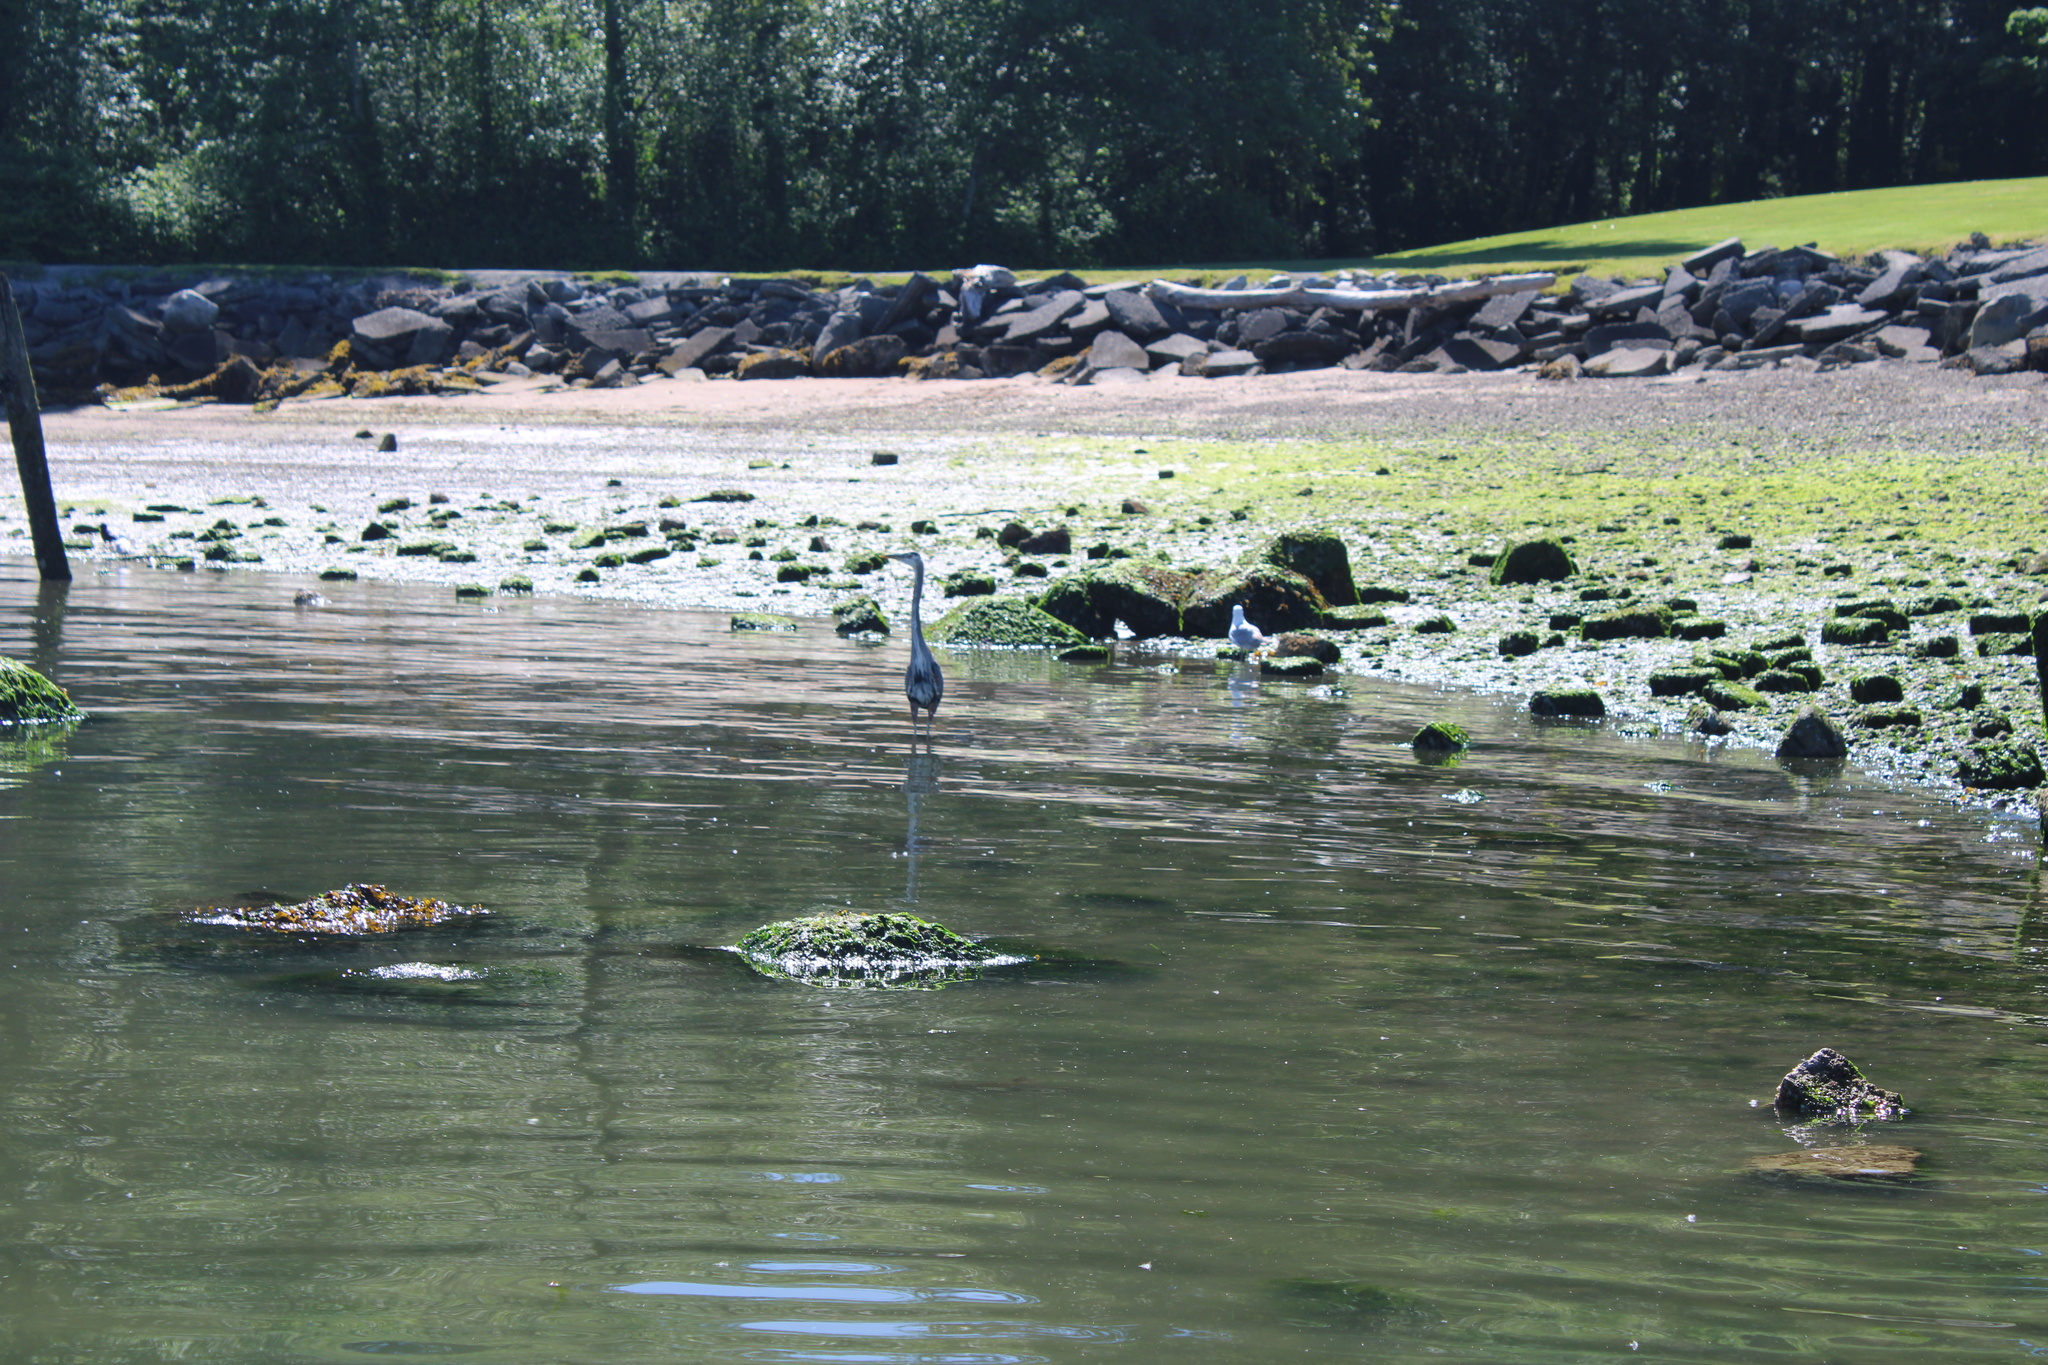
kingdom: Animalia
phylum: Chordata
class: Aves
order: Pelecaniformes
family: Ardeidae
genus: Ardea
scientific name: Ardea herodias
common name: Great blue heron
